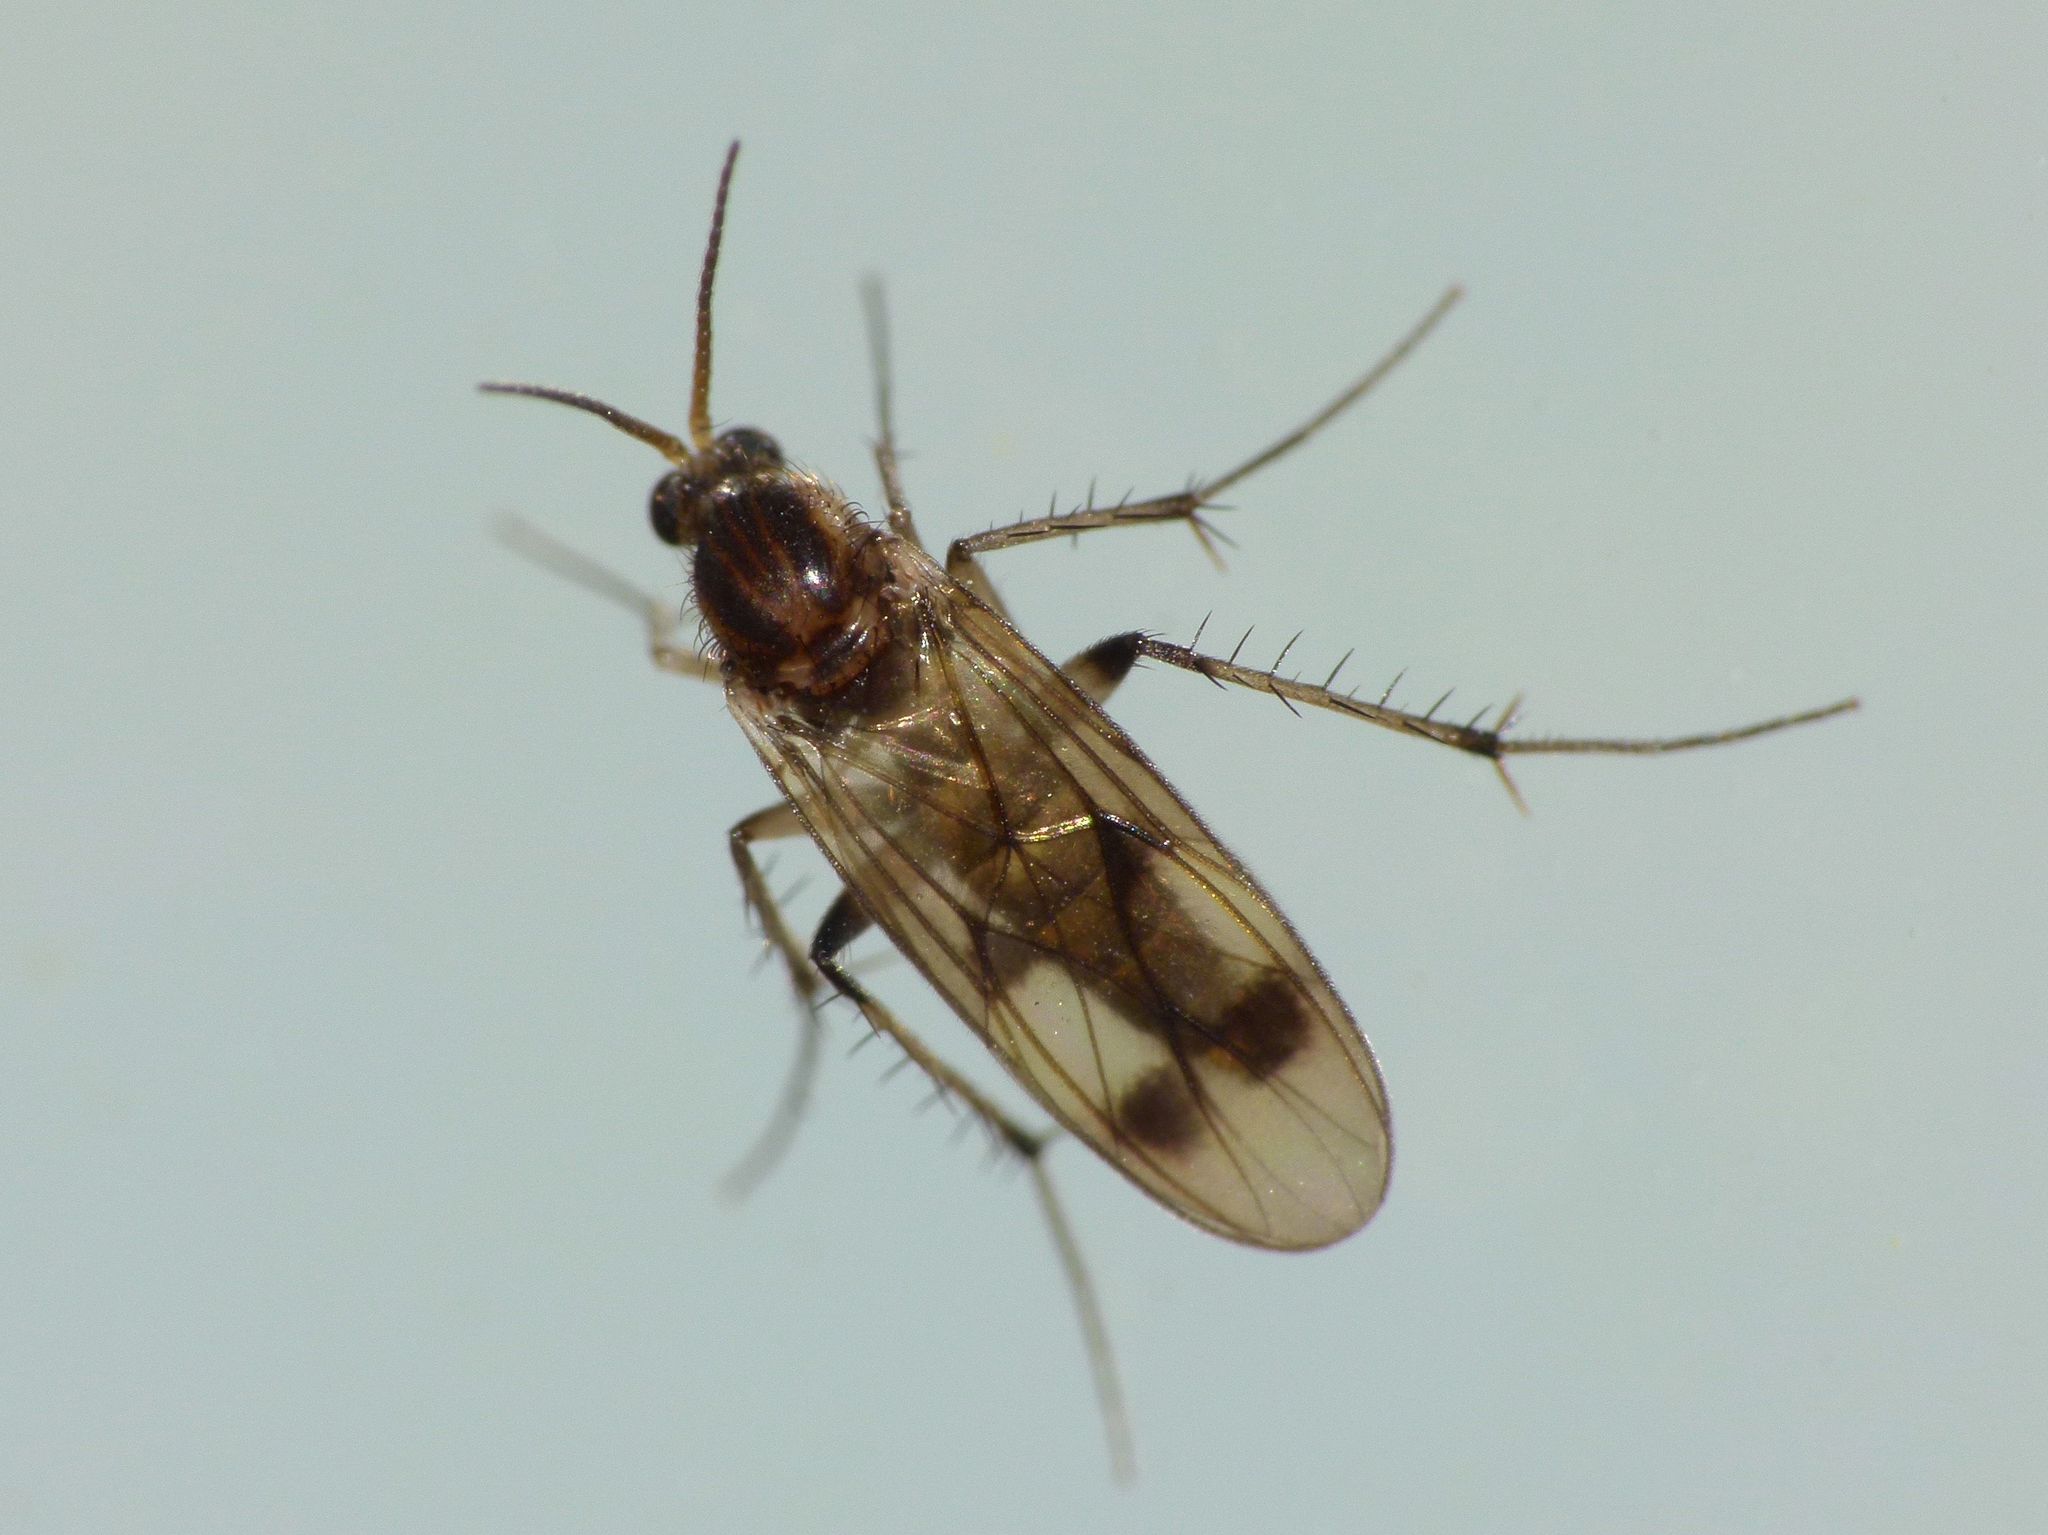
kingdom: Animalia
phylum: Arthropoda
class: Insecta
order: Diptera
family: Mycetophilidae
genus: Anomalomyia
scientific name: Anomalomyia guttata
